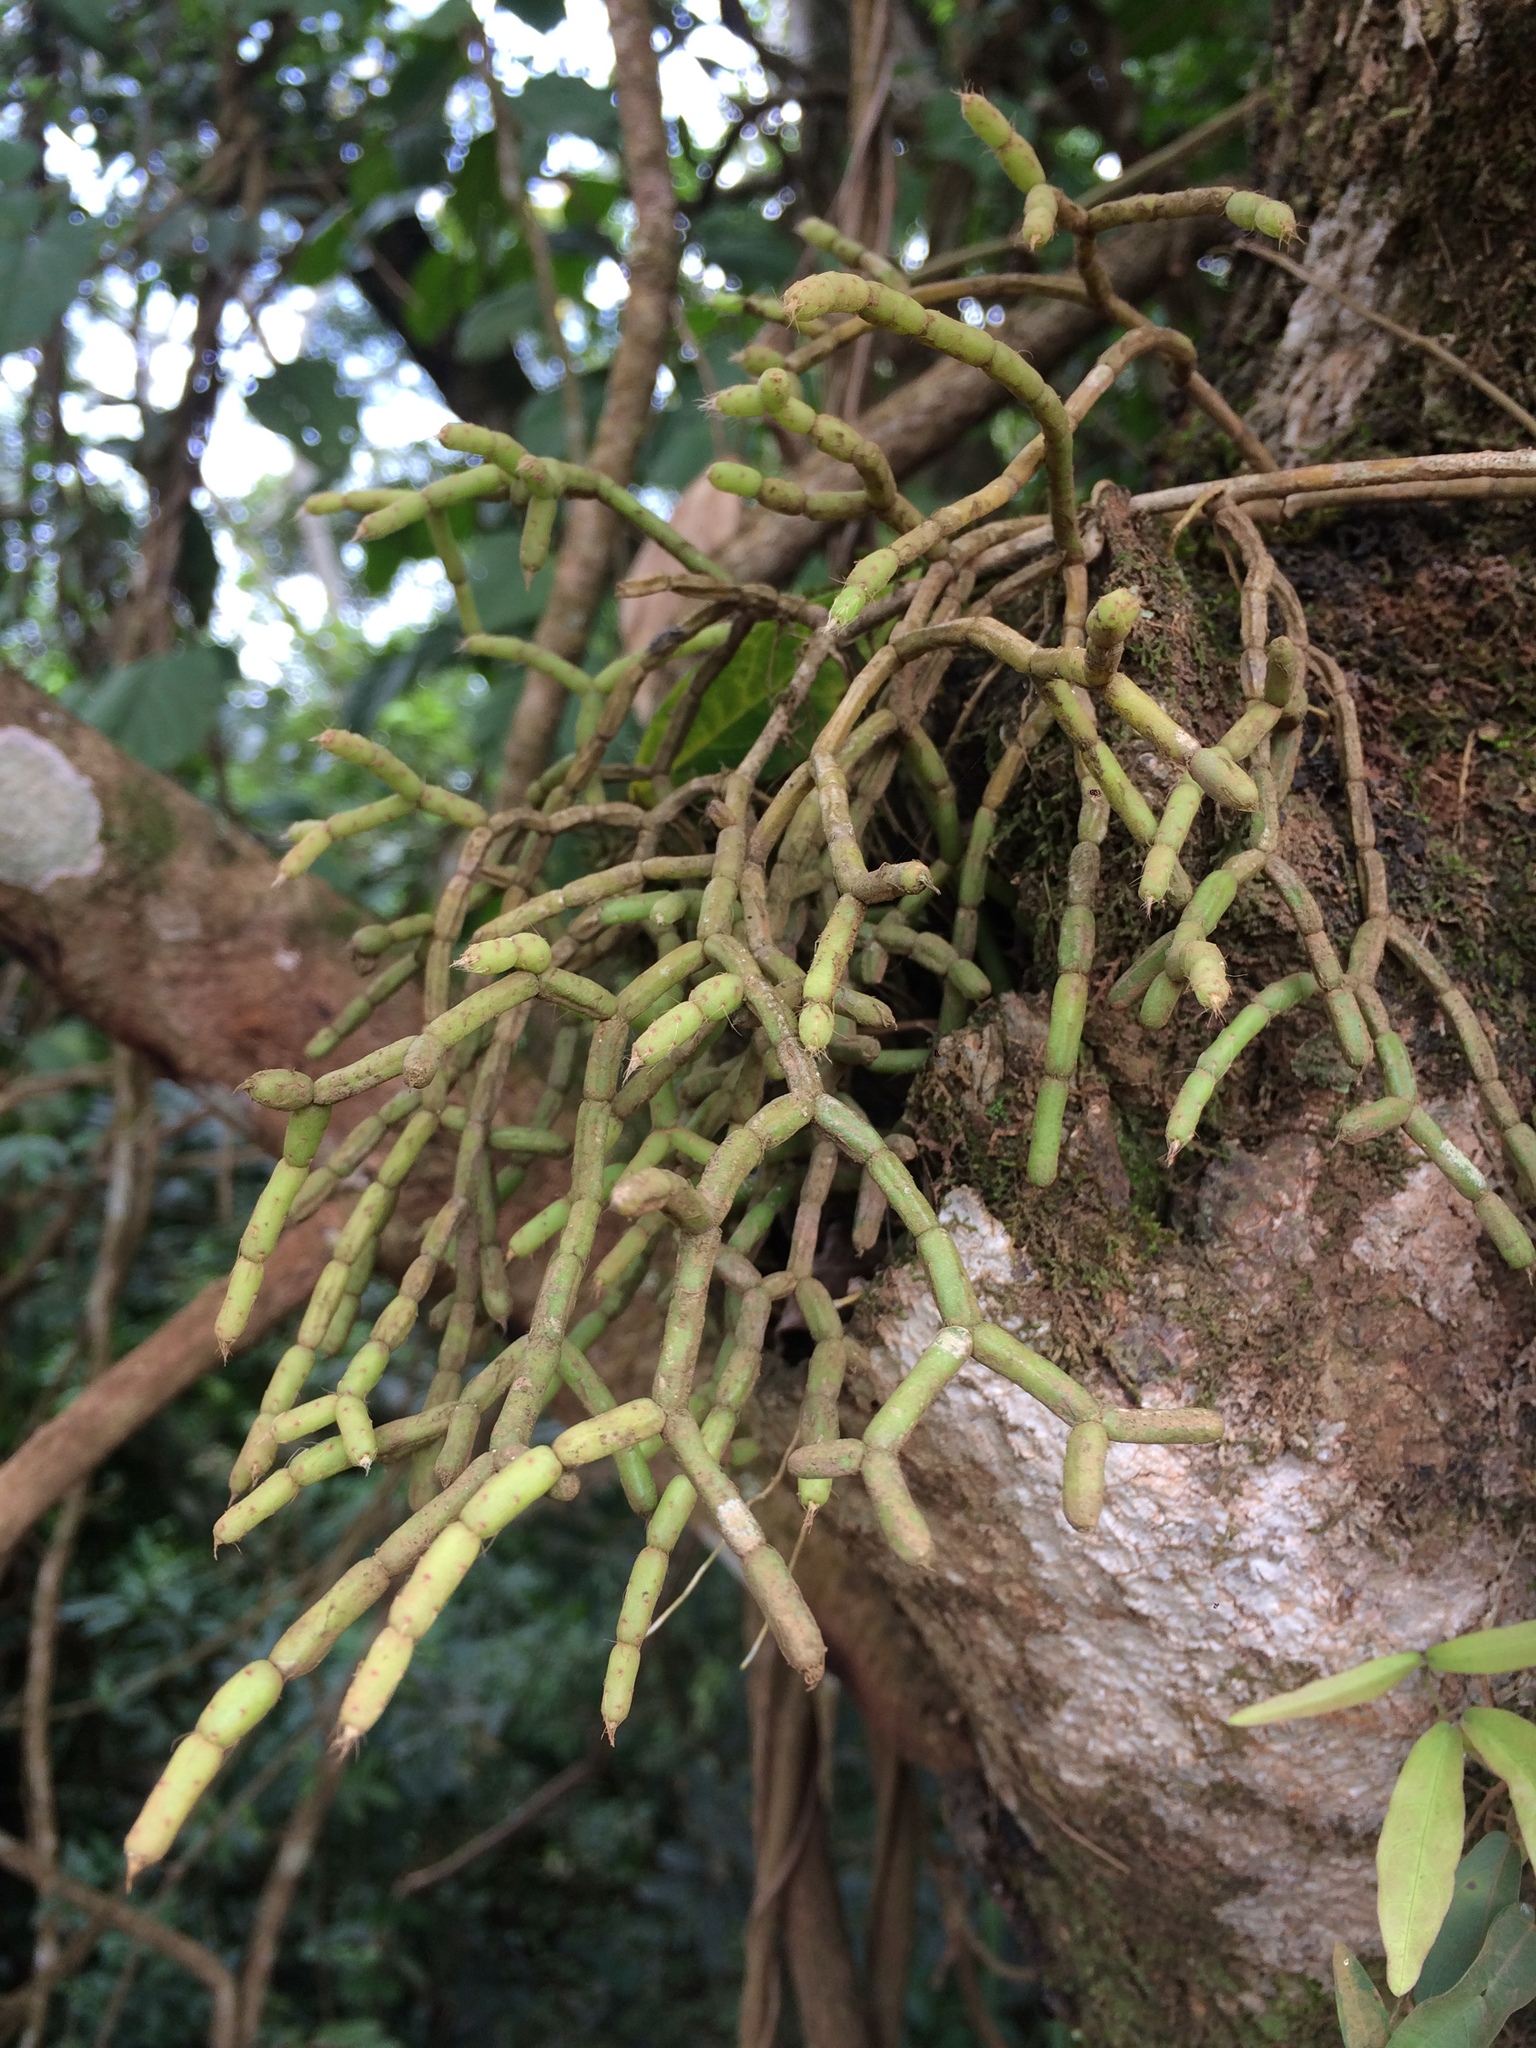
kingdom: Plantae
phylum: Tracheophyta
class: Magnoliopsida
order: Caryophyllales
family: Cactaceae
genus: Rhipsalis
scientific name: Rhipsalis cereuscula
